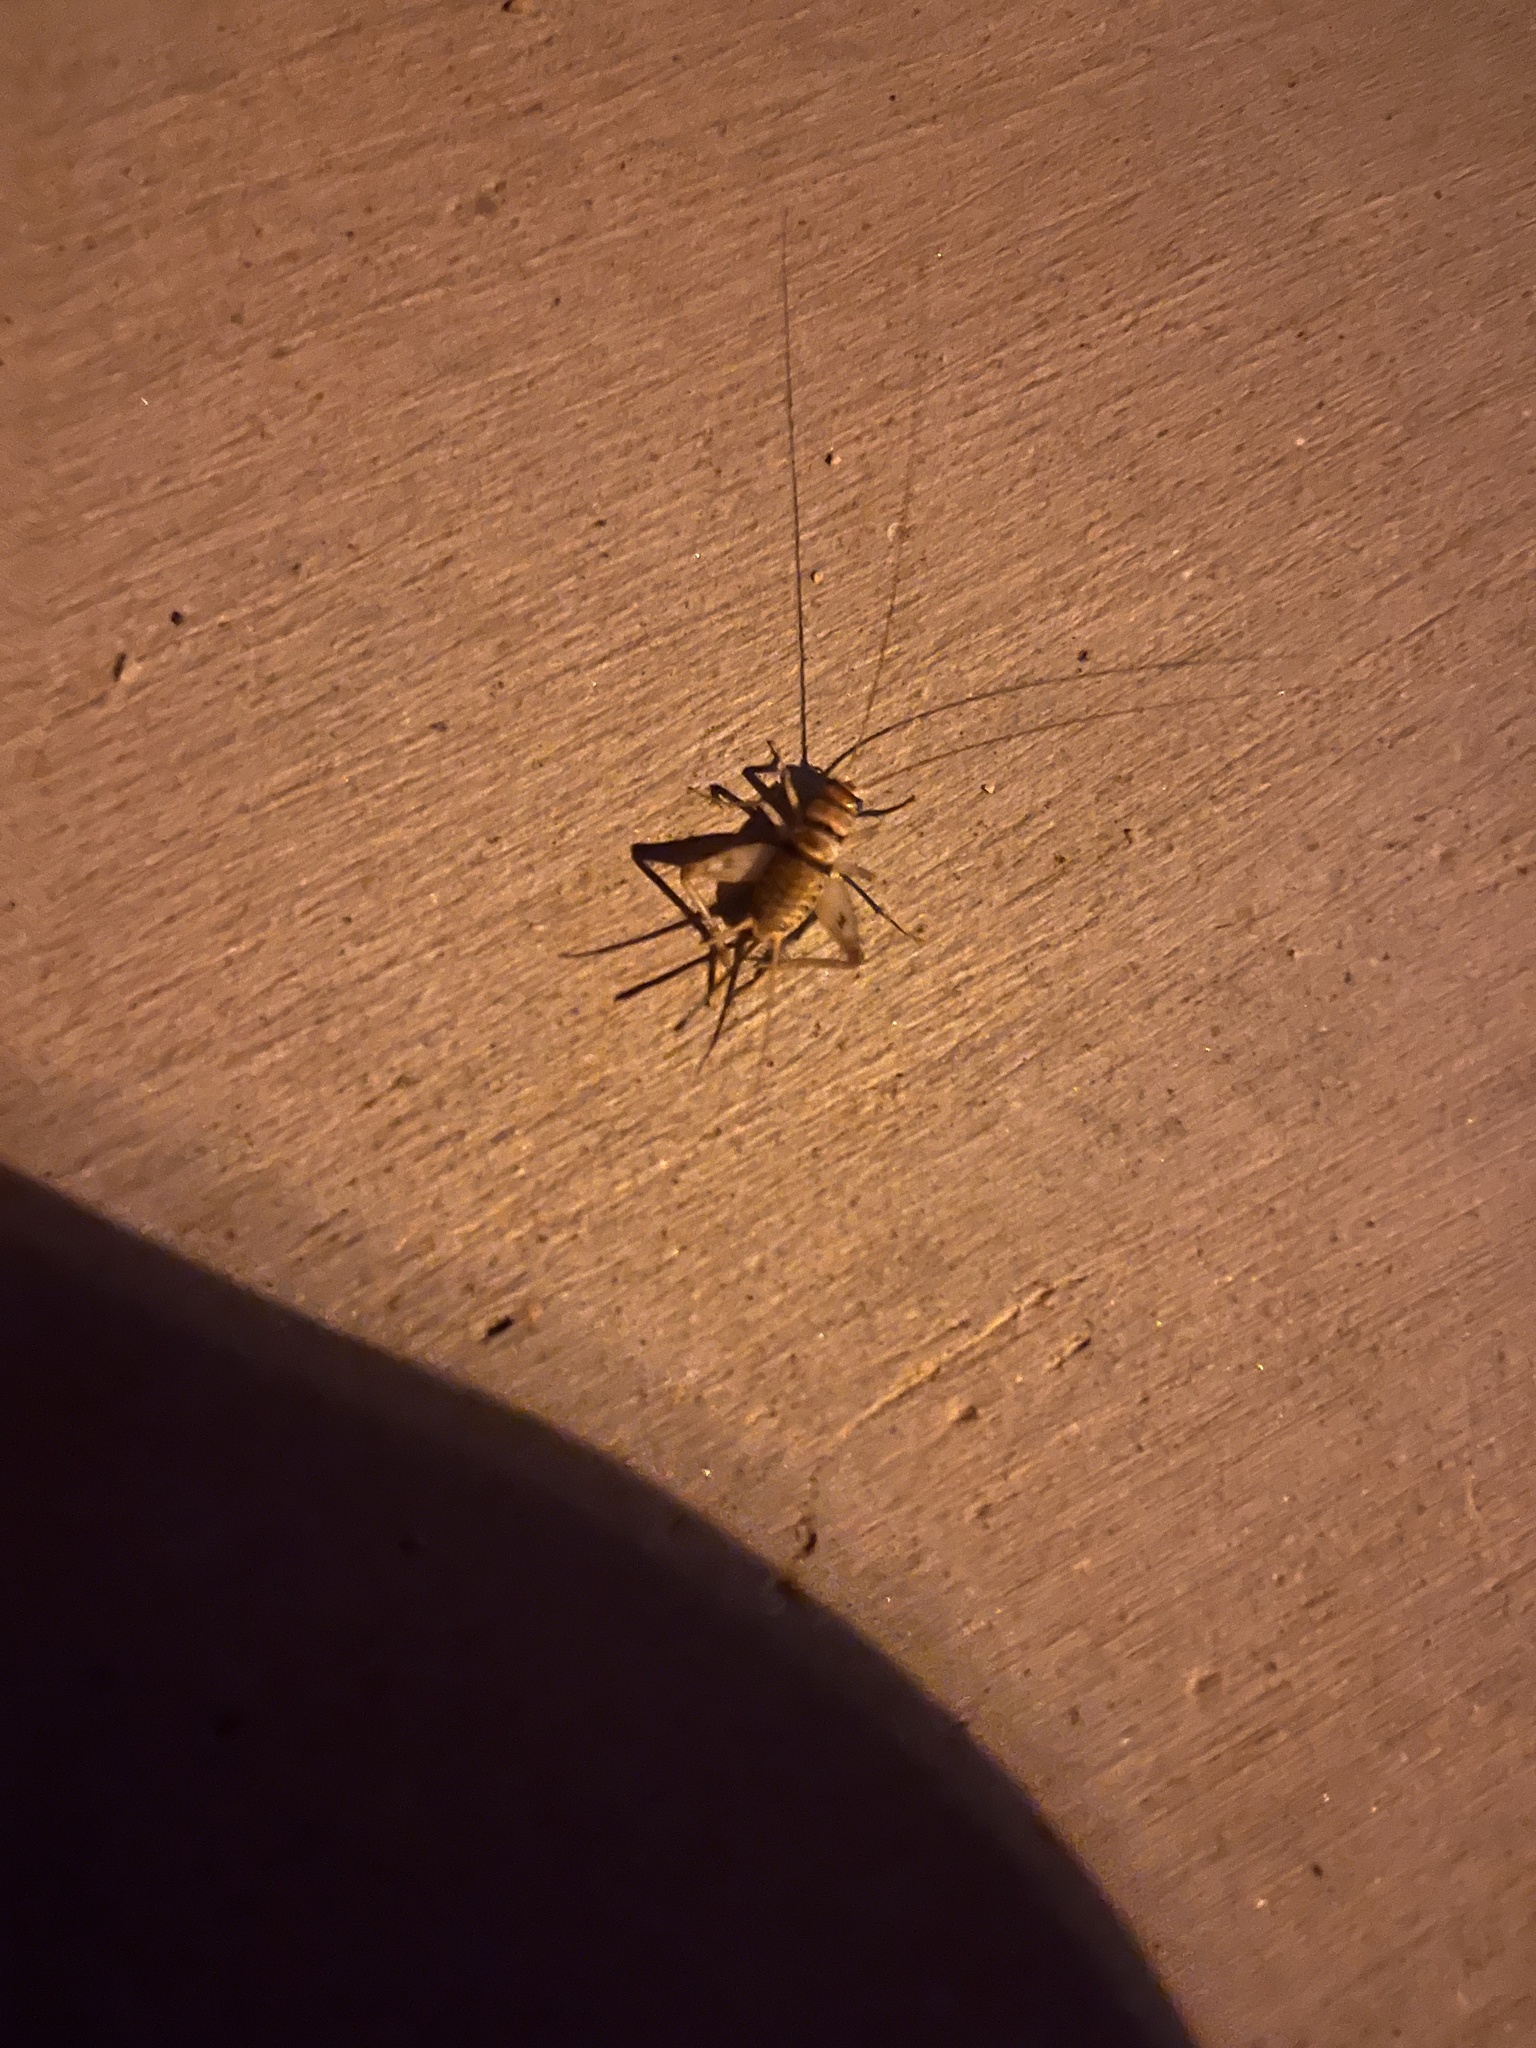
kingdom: Animalia
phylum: Arthropoda
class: Insecta
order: Orthoptera
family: Gryllidae
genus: Gryllodes
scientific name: Gryllodes sigillatus
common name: Tropical house cricket
